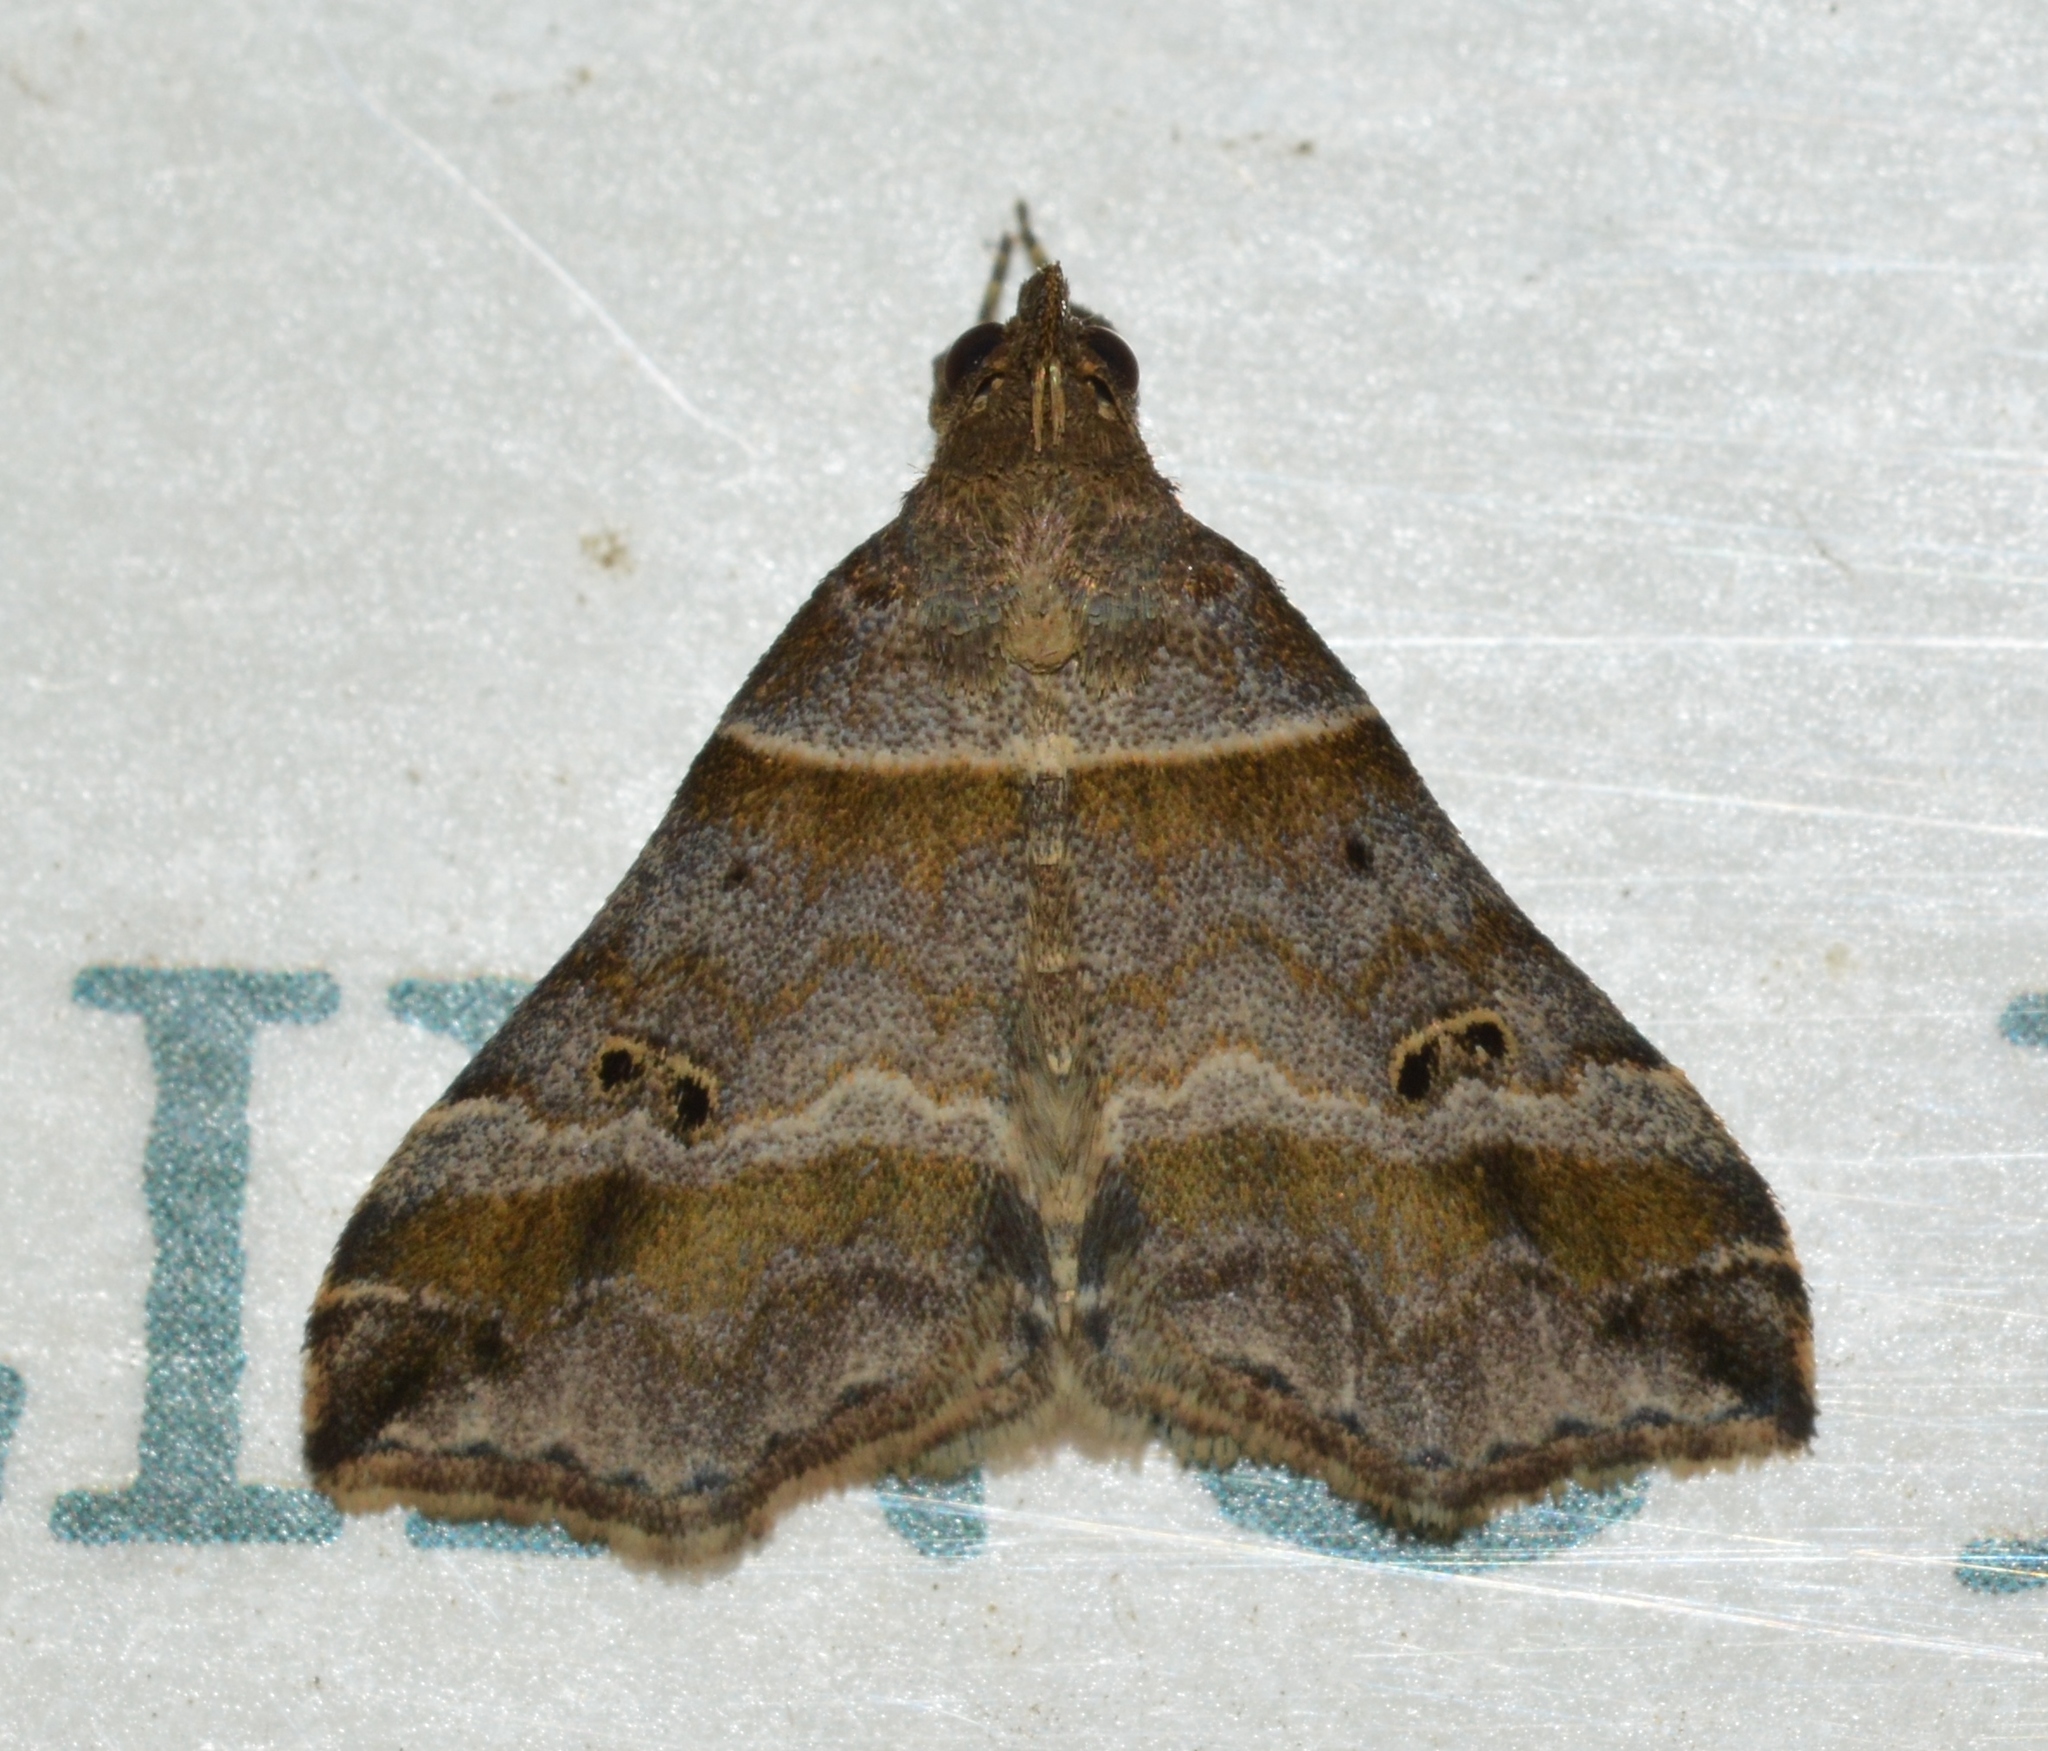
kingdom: Animalia
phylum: Arthropoda
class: Insecta
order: Lepidoptera
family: Erebidae
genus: Phaeolita
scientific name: Phaeolita pyramusalis
